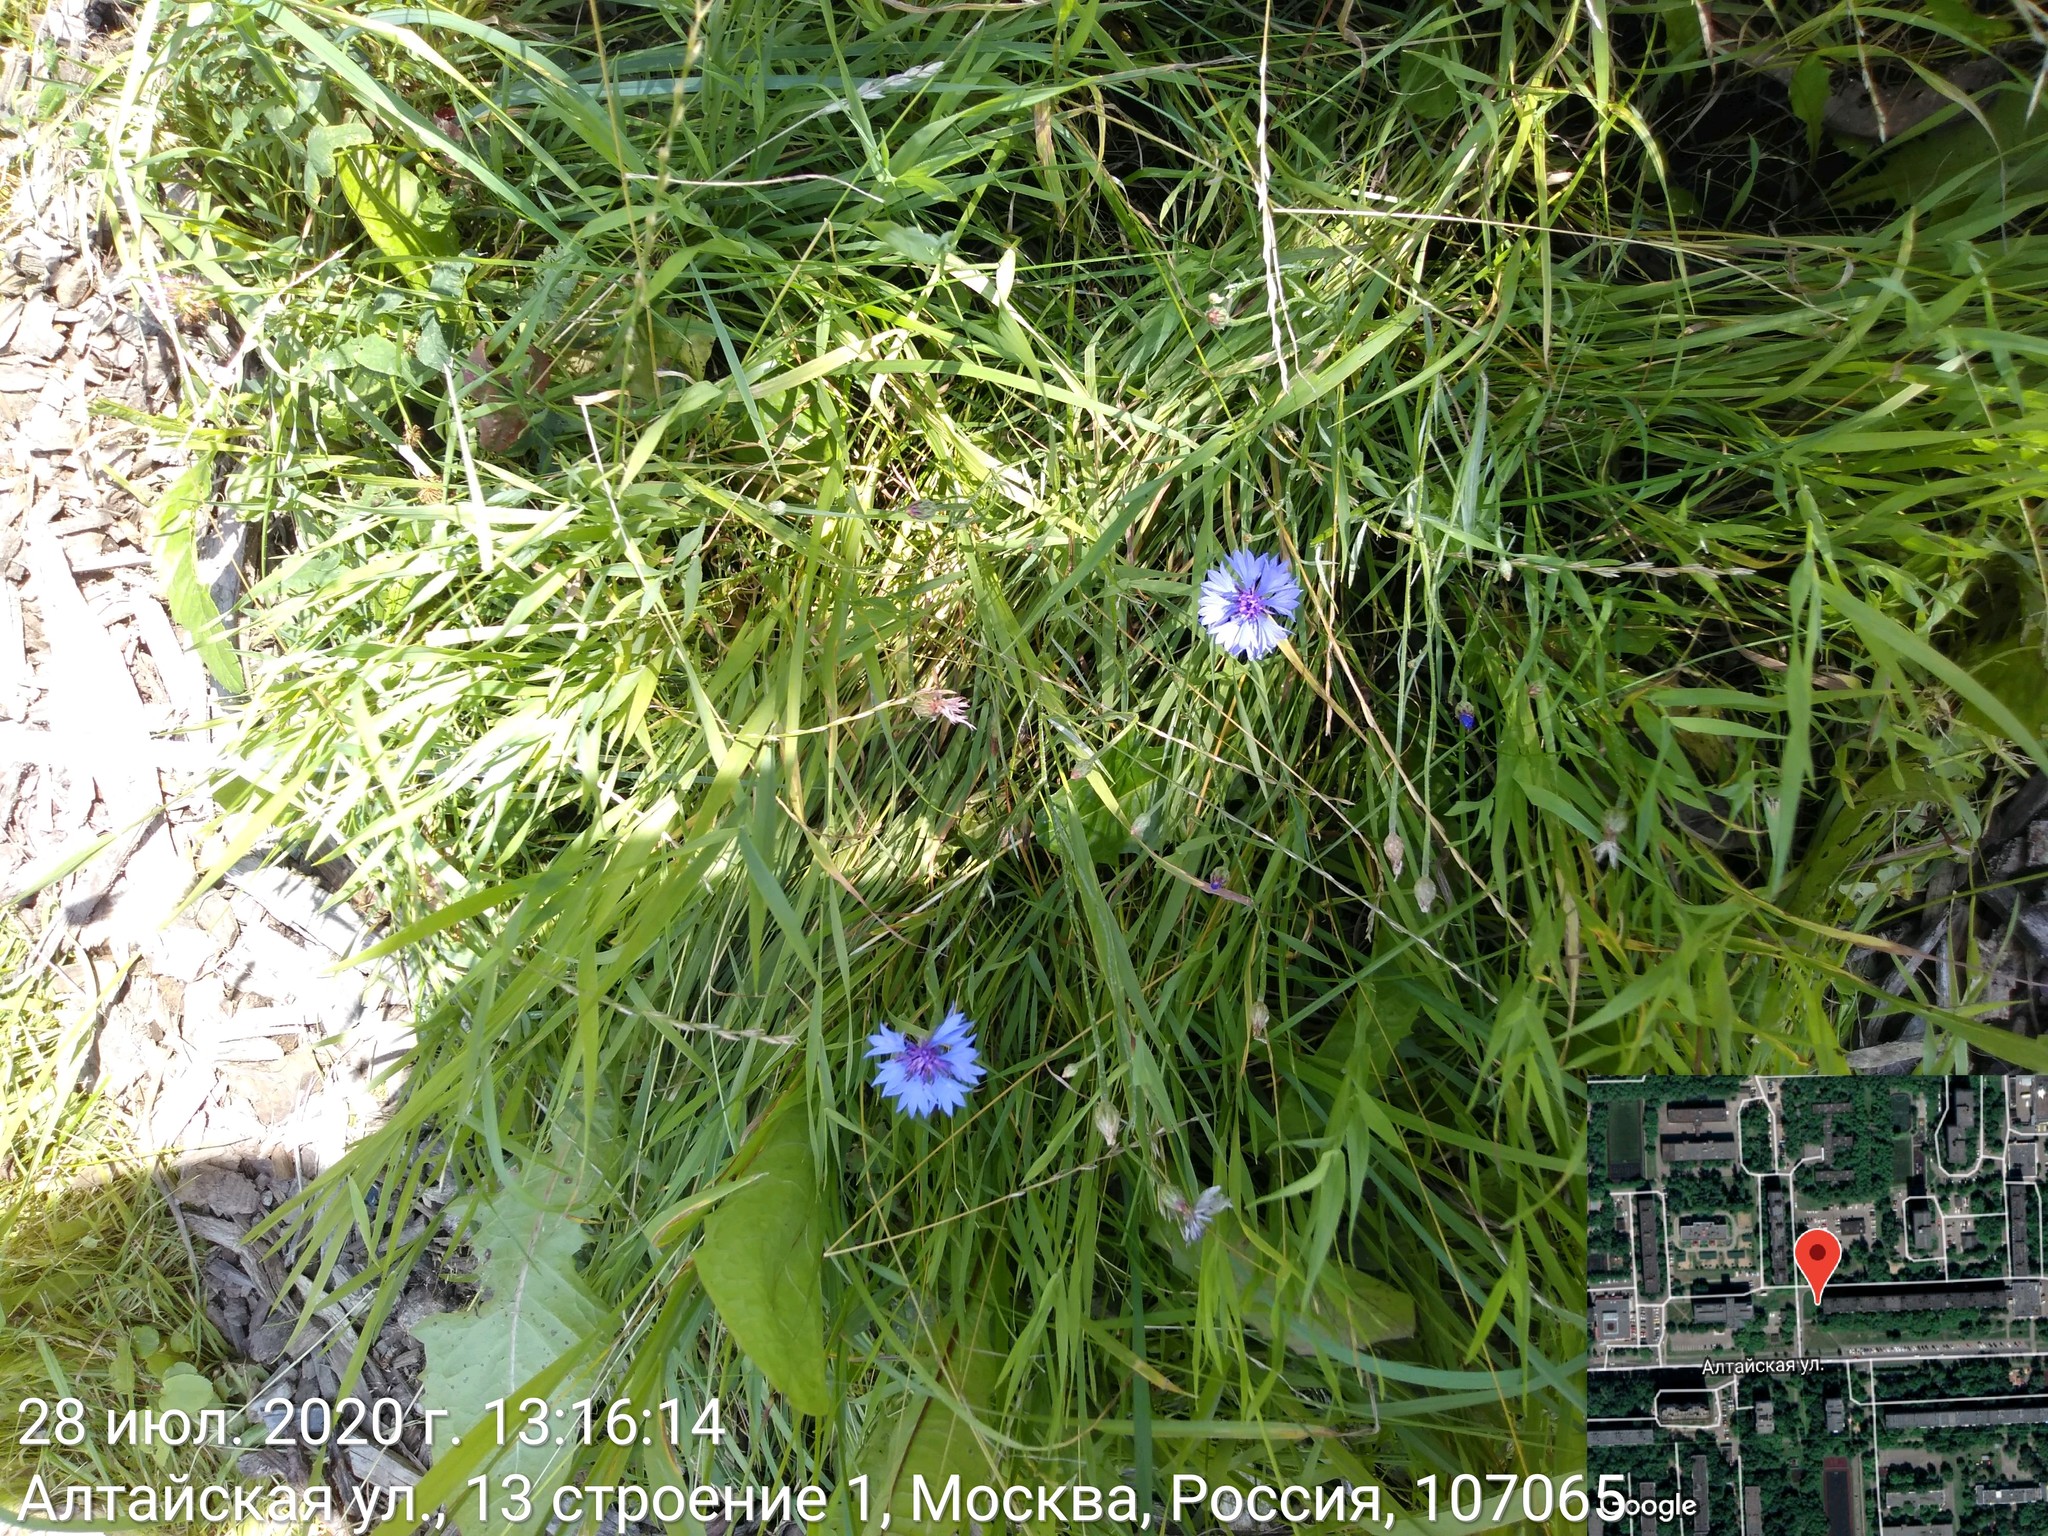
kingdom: Plantae
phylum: Tracheophyta
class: Magnoliopsida
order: Asterales
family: Asteraceae
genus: Centaurea
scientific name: Centaurea cyanus
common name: Cornflower
